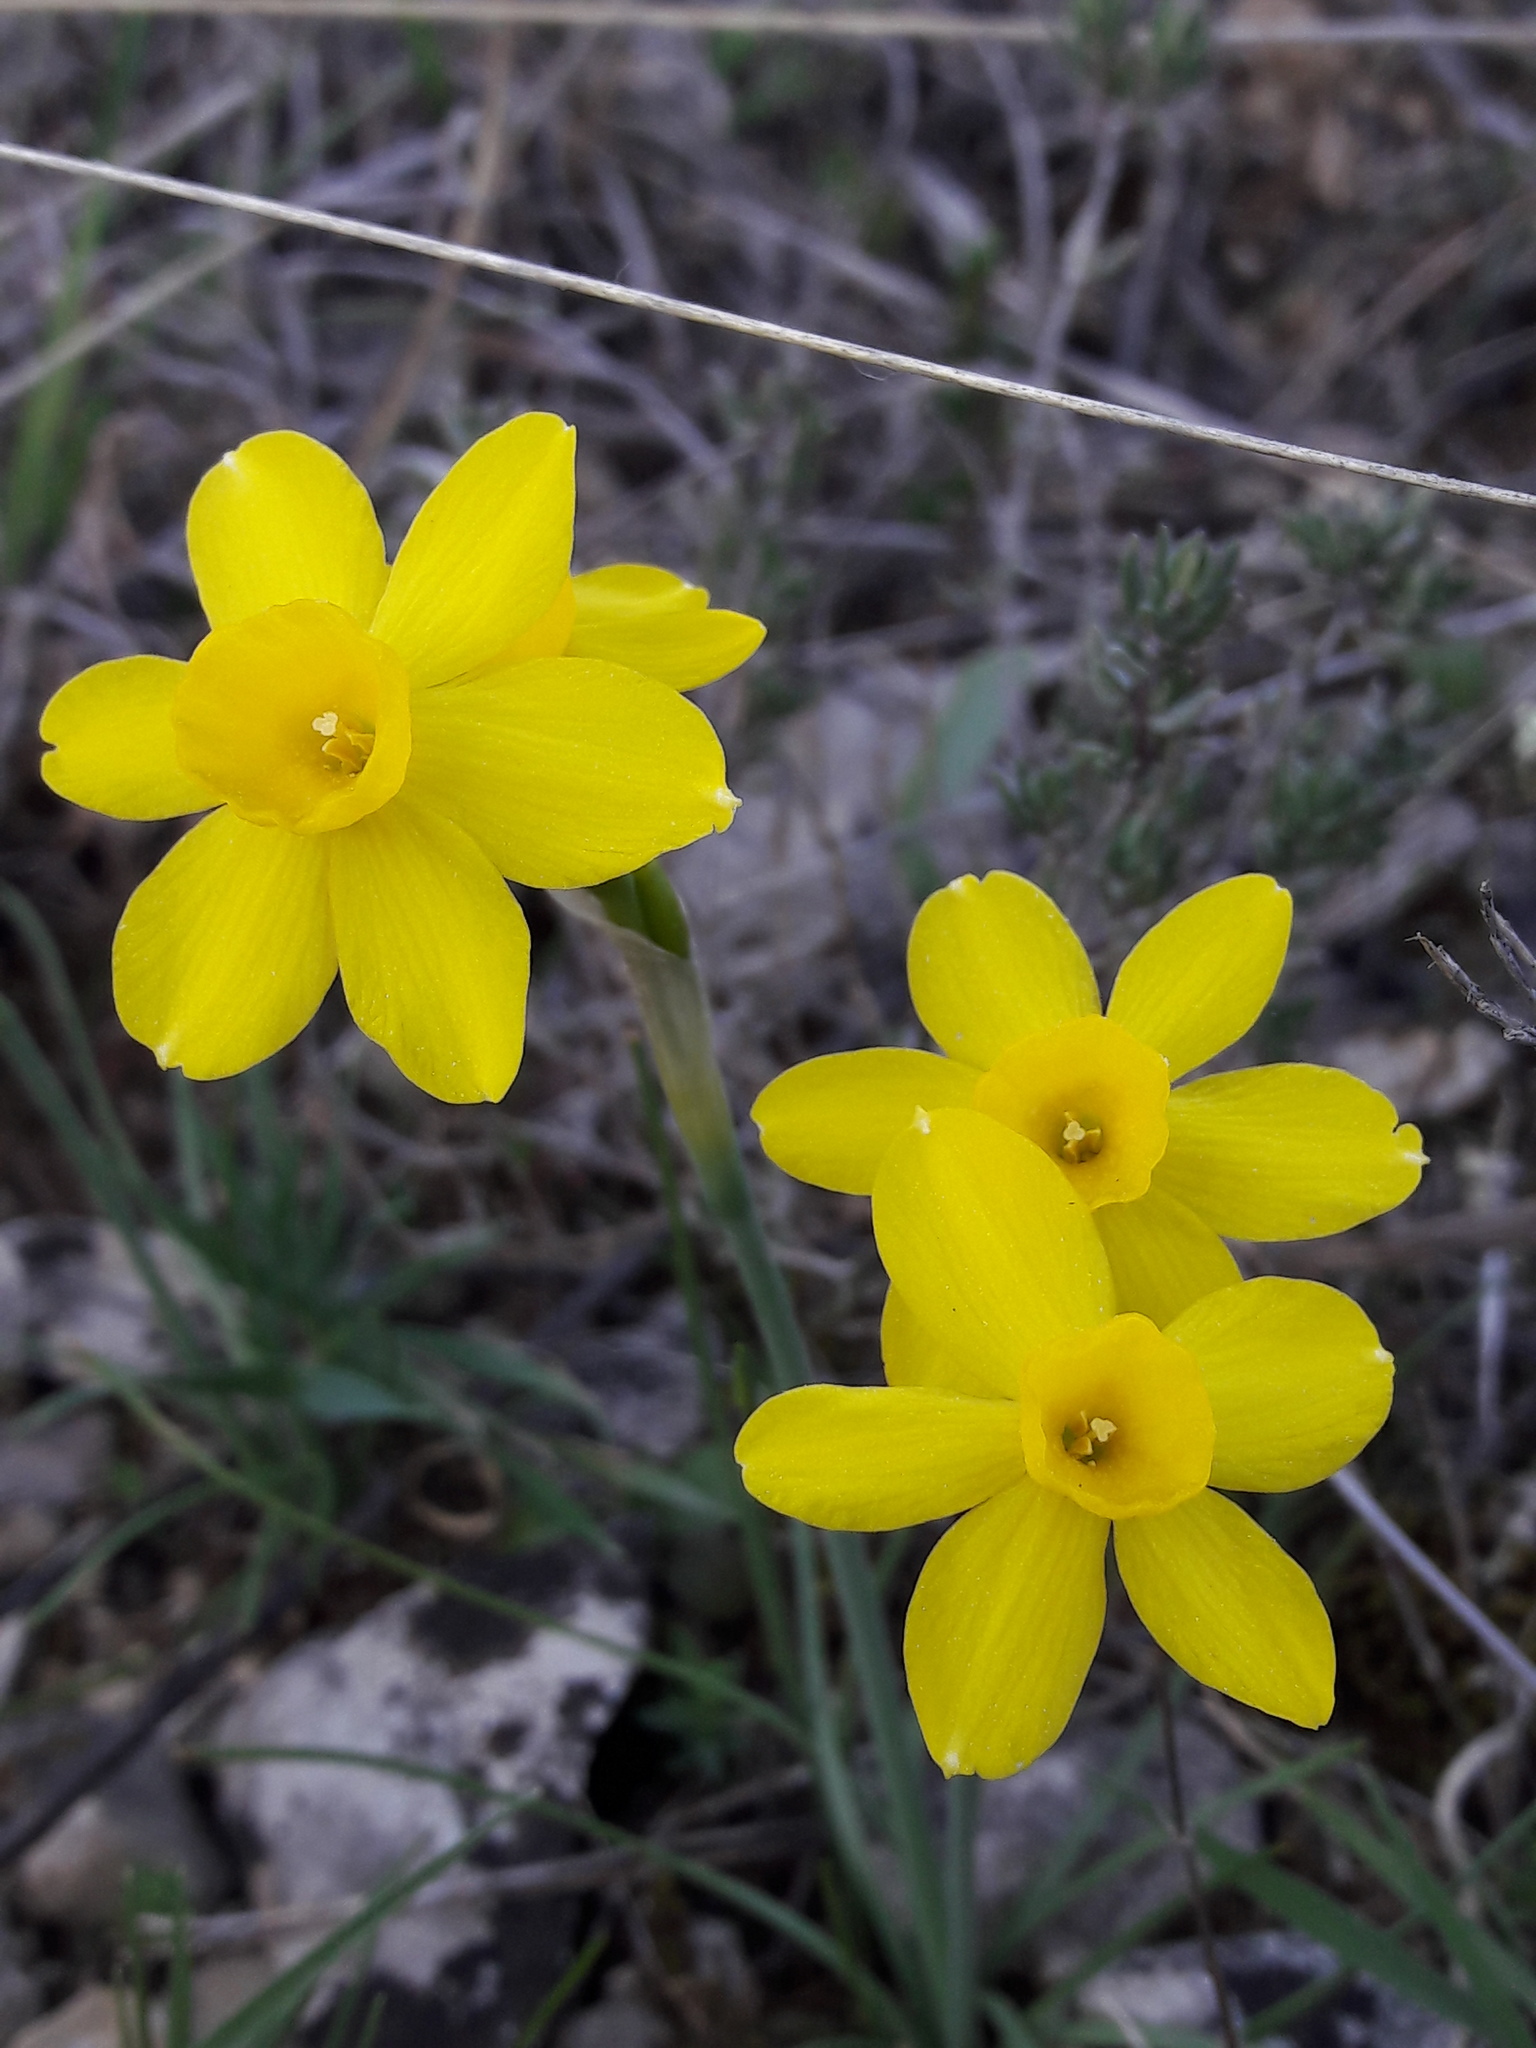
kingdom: Plantae
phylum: Tracheophyta
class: Liliopsida
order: Asparagales
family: Amaryllidaceae
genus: Narcissus
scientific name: Narcissus assoanus
